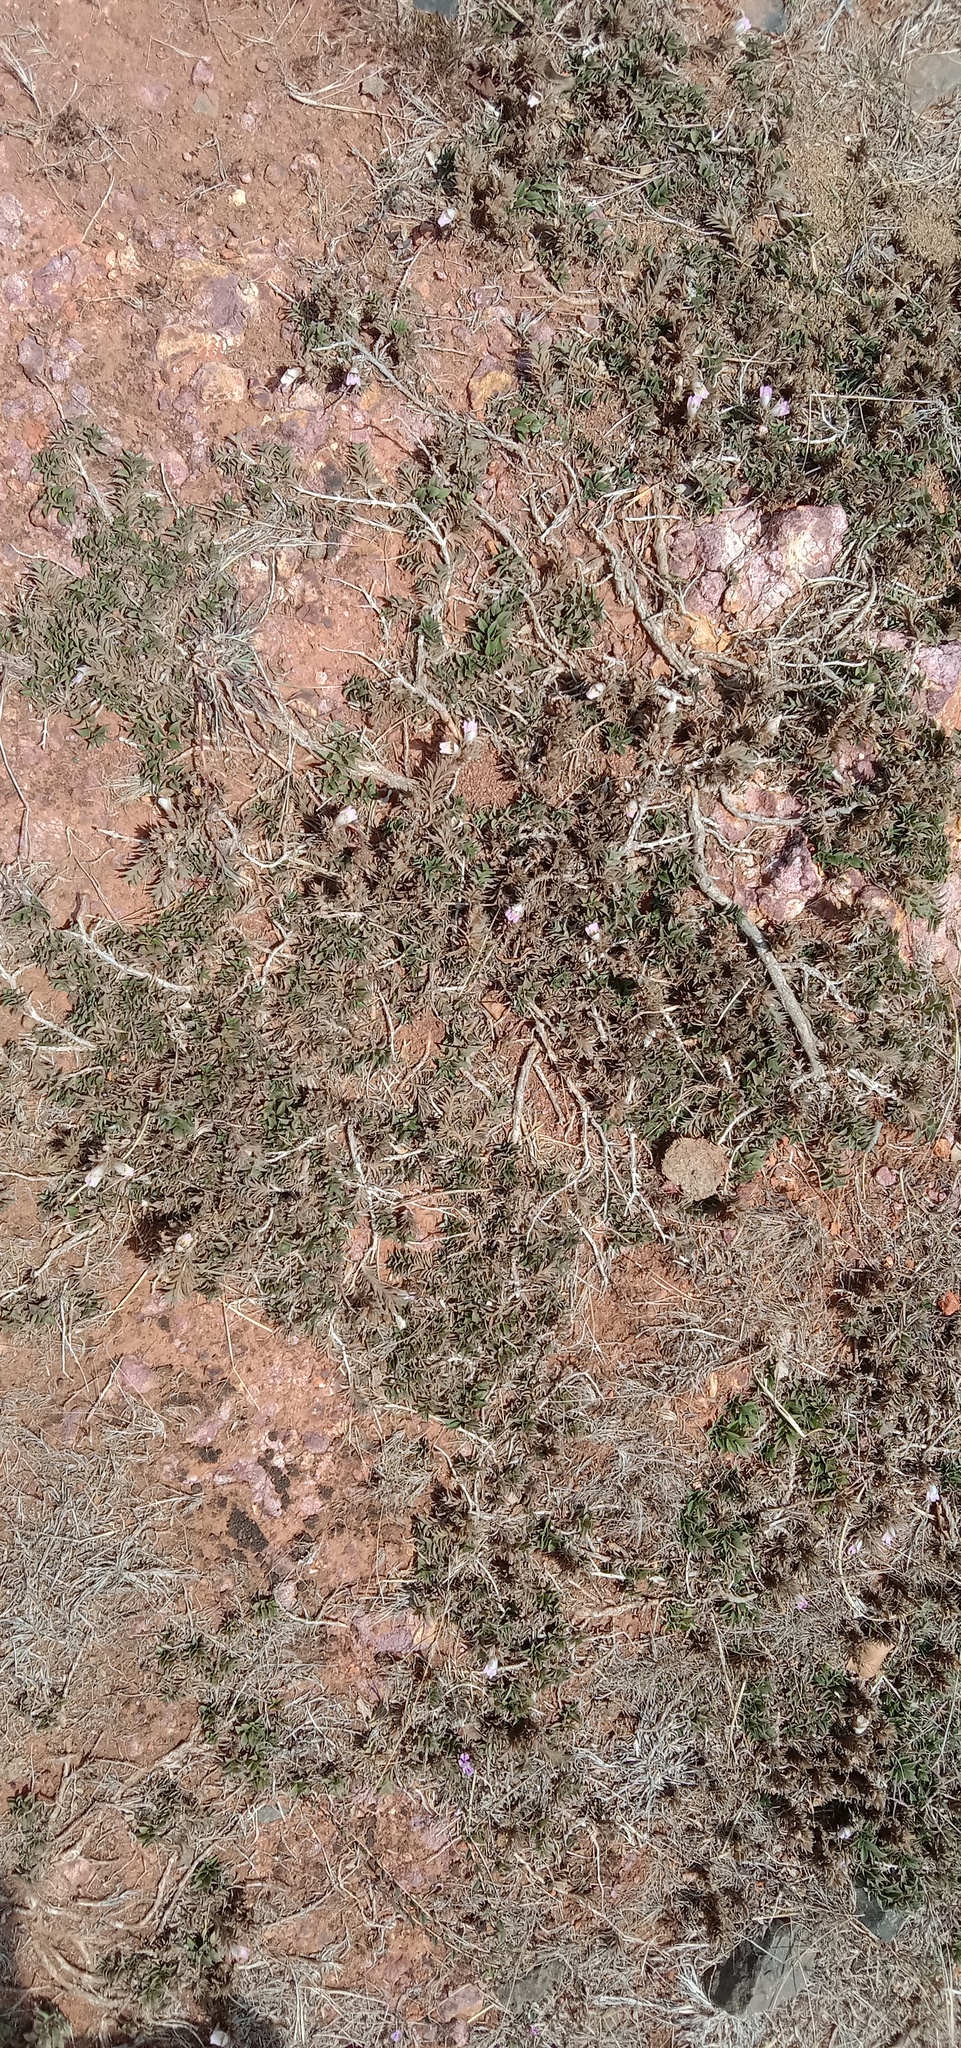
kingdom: Plantae
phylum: Tracheophyta
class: Magnoliopsida
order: Lamiales
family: Acanthaceae
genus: Lepidagathis
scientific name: Lepidagathis
